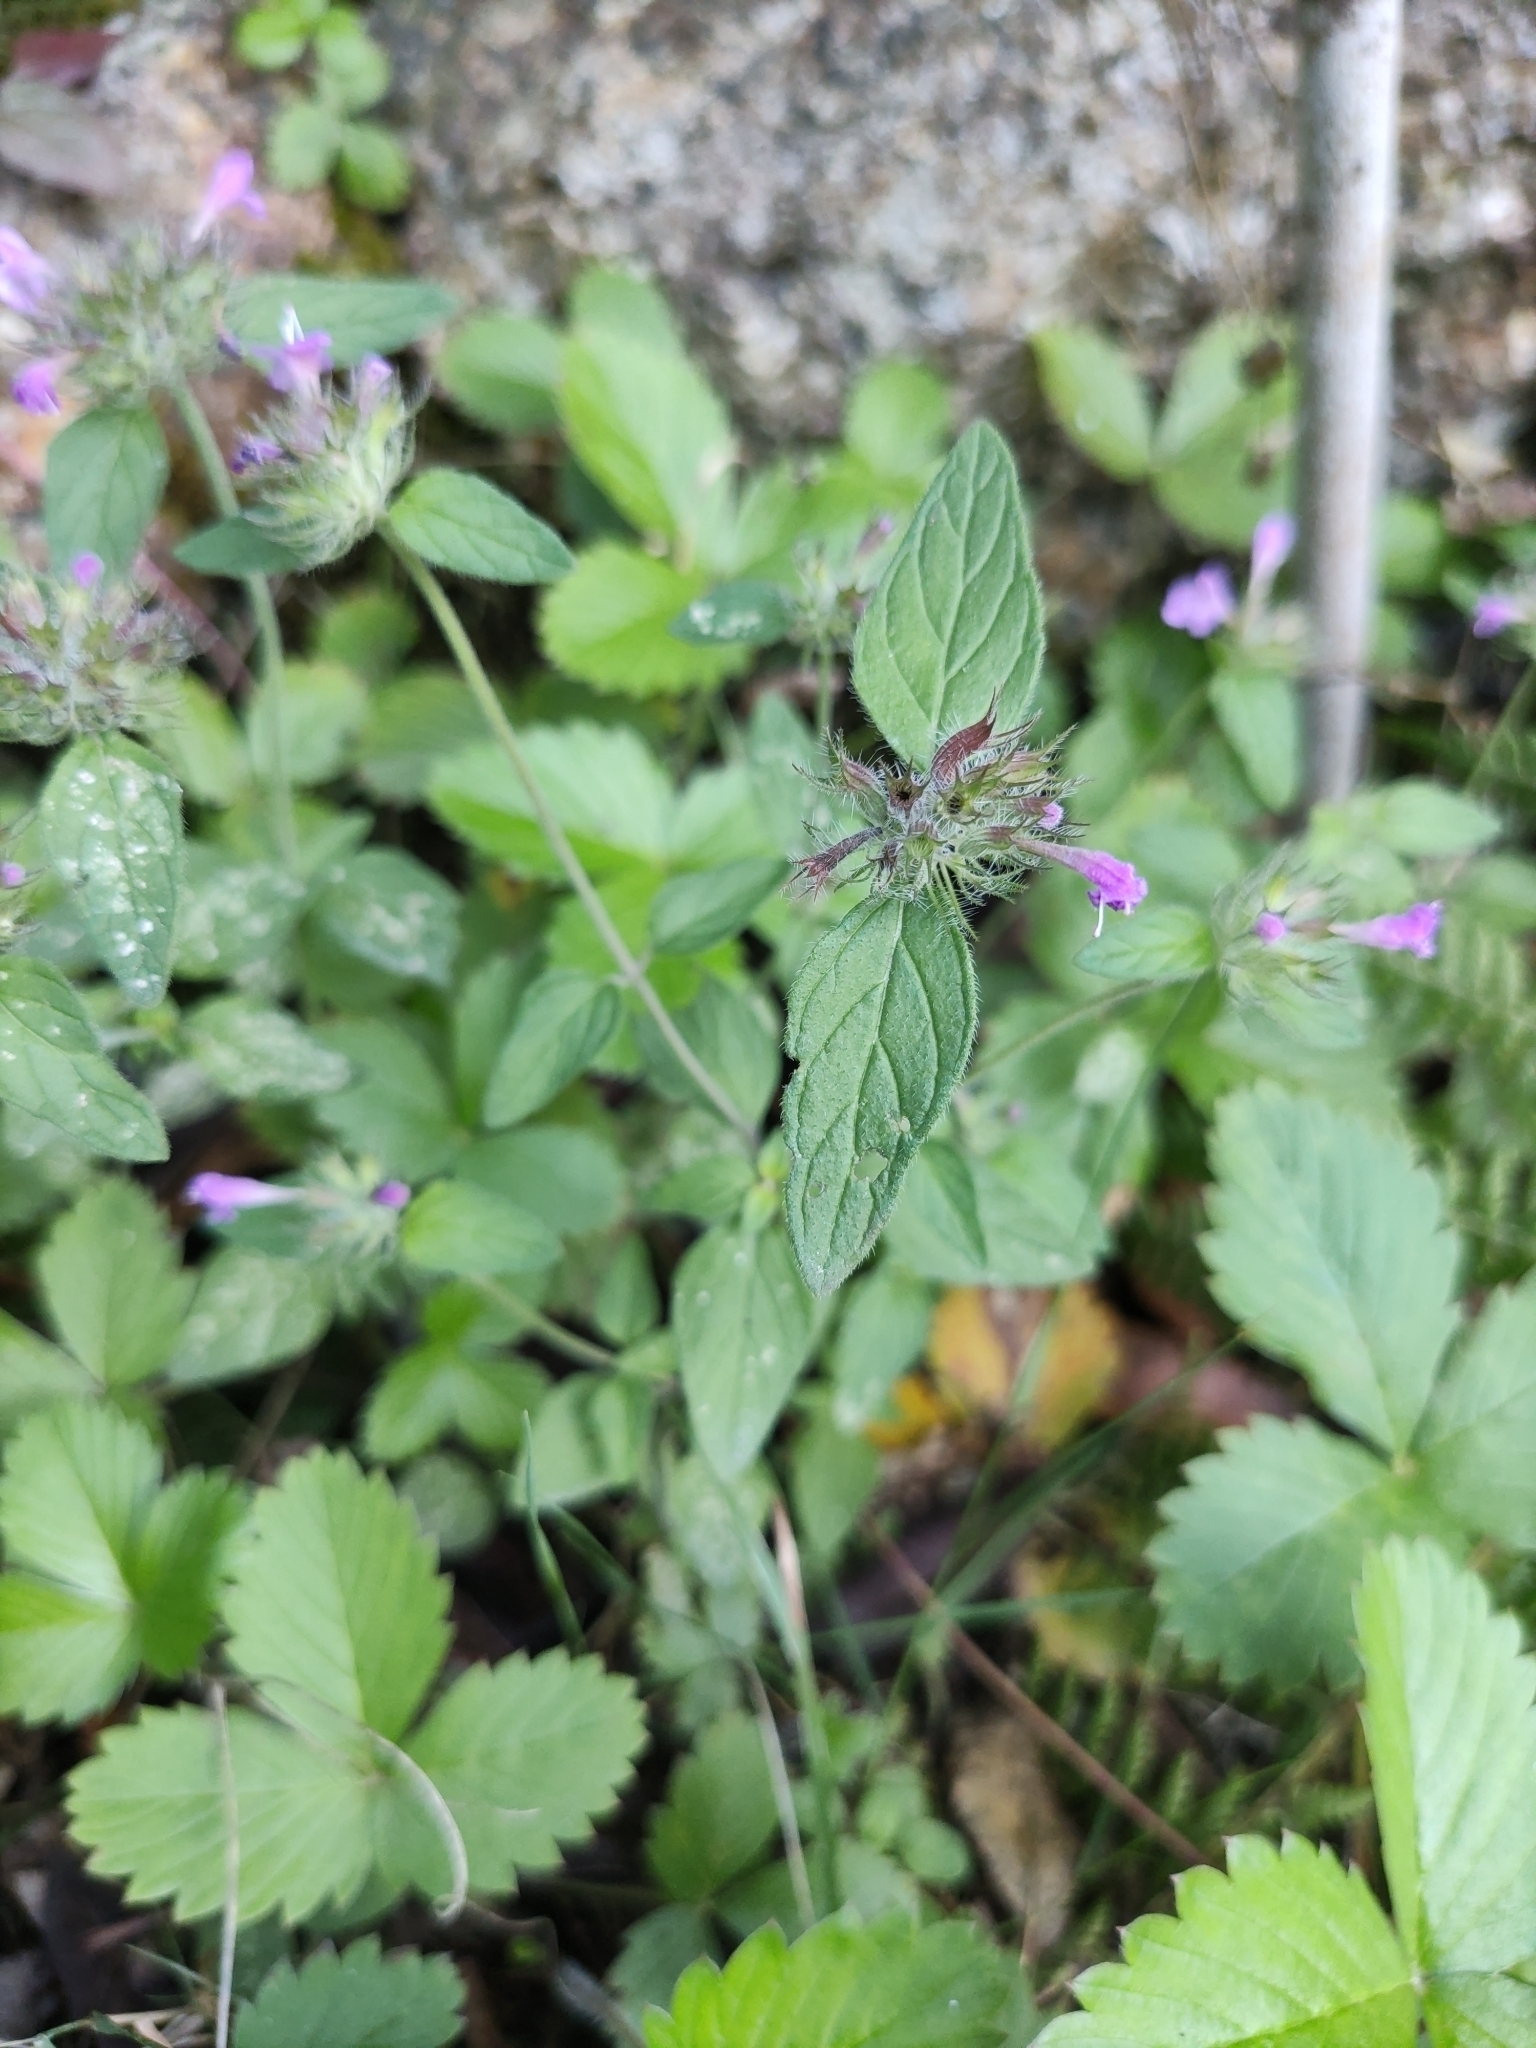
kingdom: Plantae
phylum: Tracheophyta
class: Magnoliopsida
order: Lamiales
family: Lamiaceae
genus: Clinopodium
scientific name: Clinopodium vulgare
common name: Wild basil
